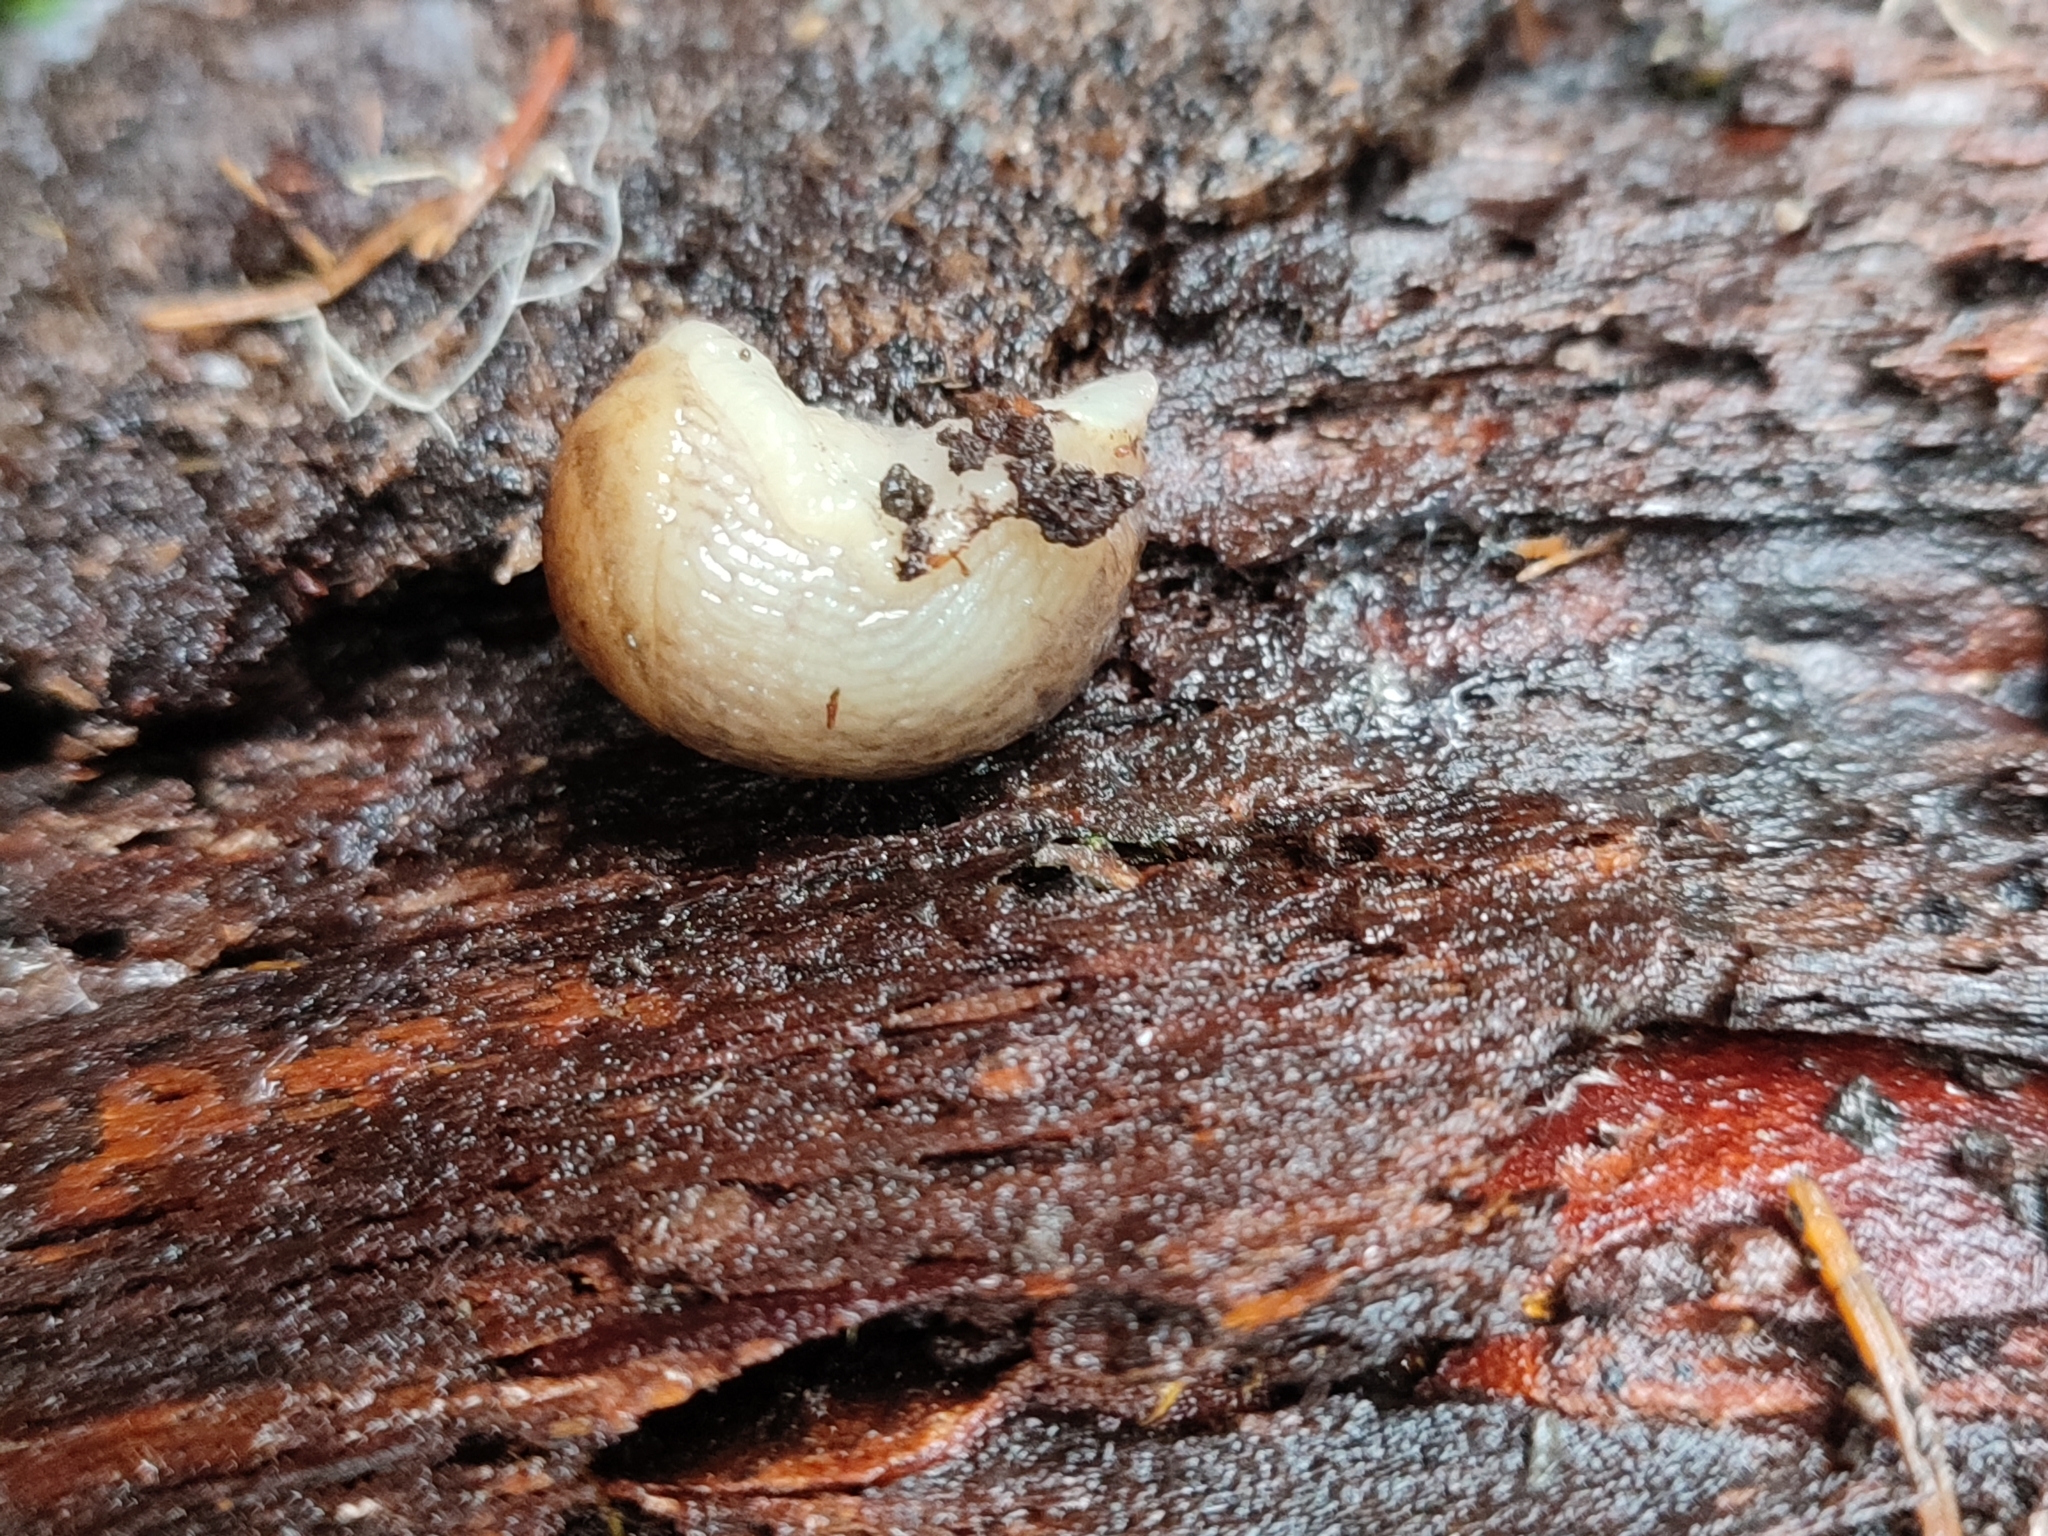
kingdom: Animalia
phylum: Mollusca
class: Gastropoda
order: Stylommatophora
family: Arionidae
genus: Arion
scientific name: Arion fuscus
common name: Northern dusky slug
